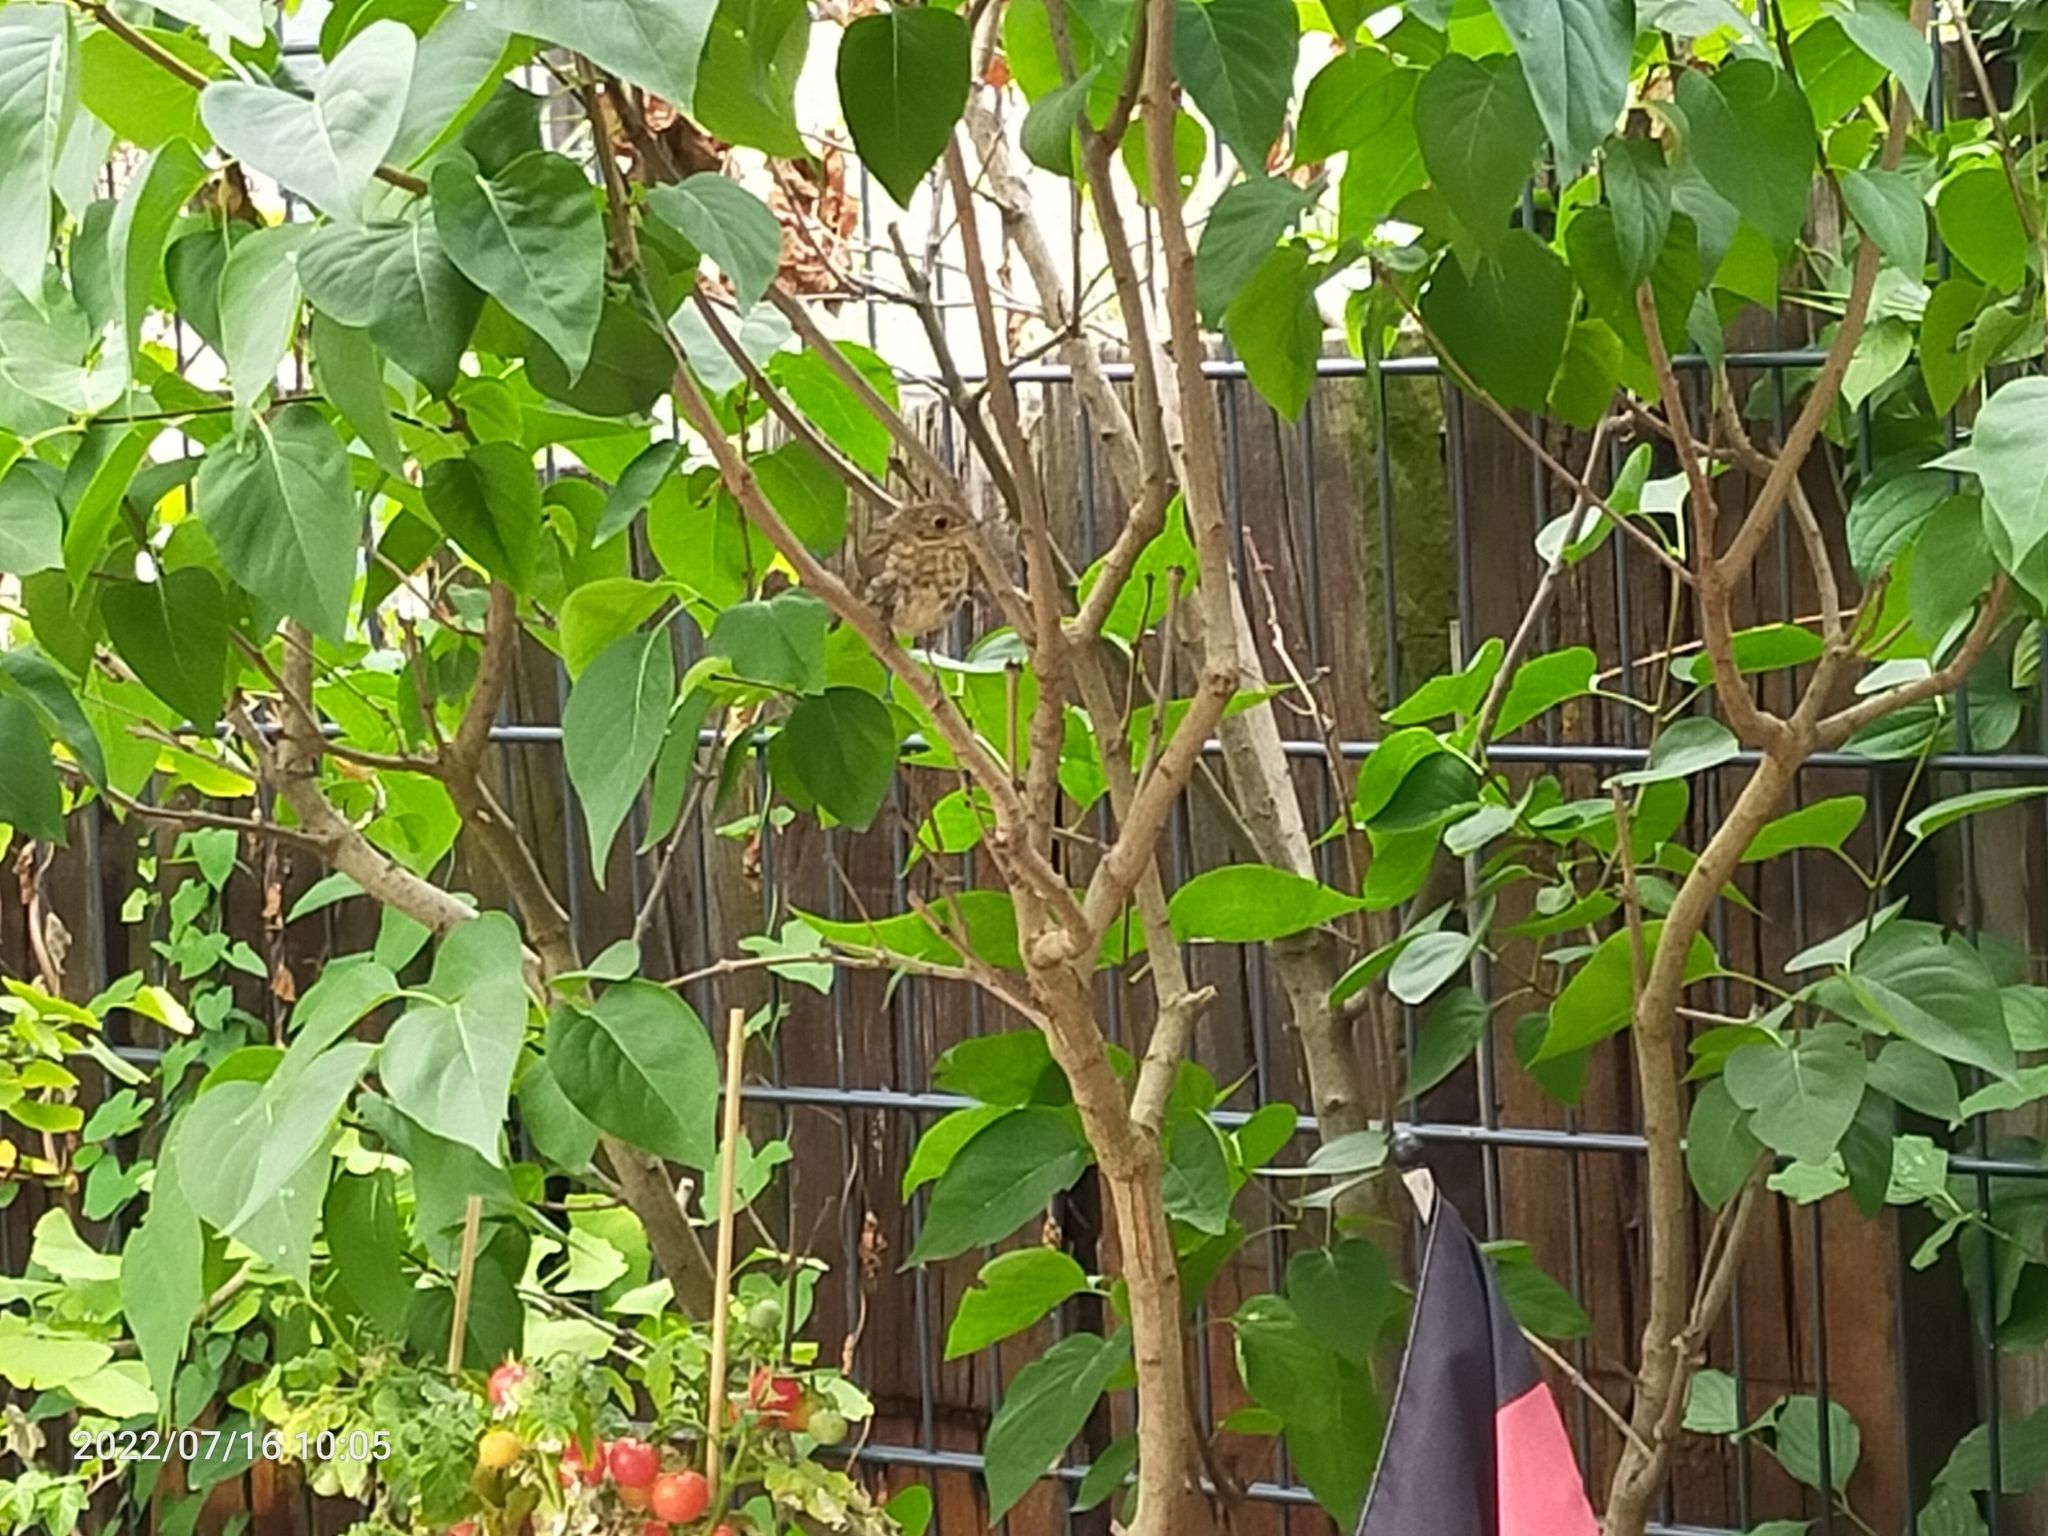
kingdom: Animalia
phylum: Chordata
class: Aves
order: Passeriformes
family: Muscicapidae
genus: Erithacus
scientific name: Erithacus rubecula
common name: European robin
